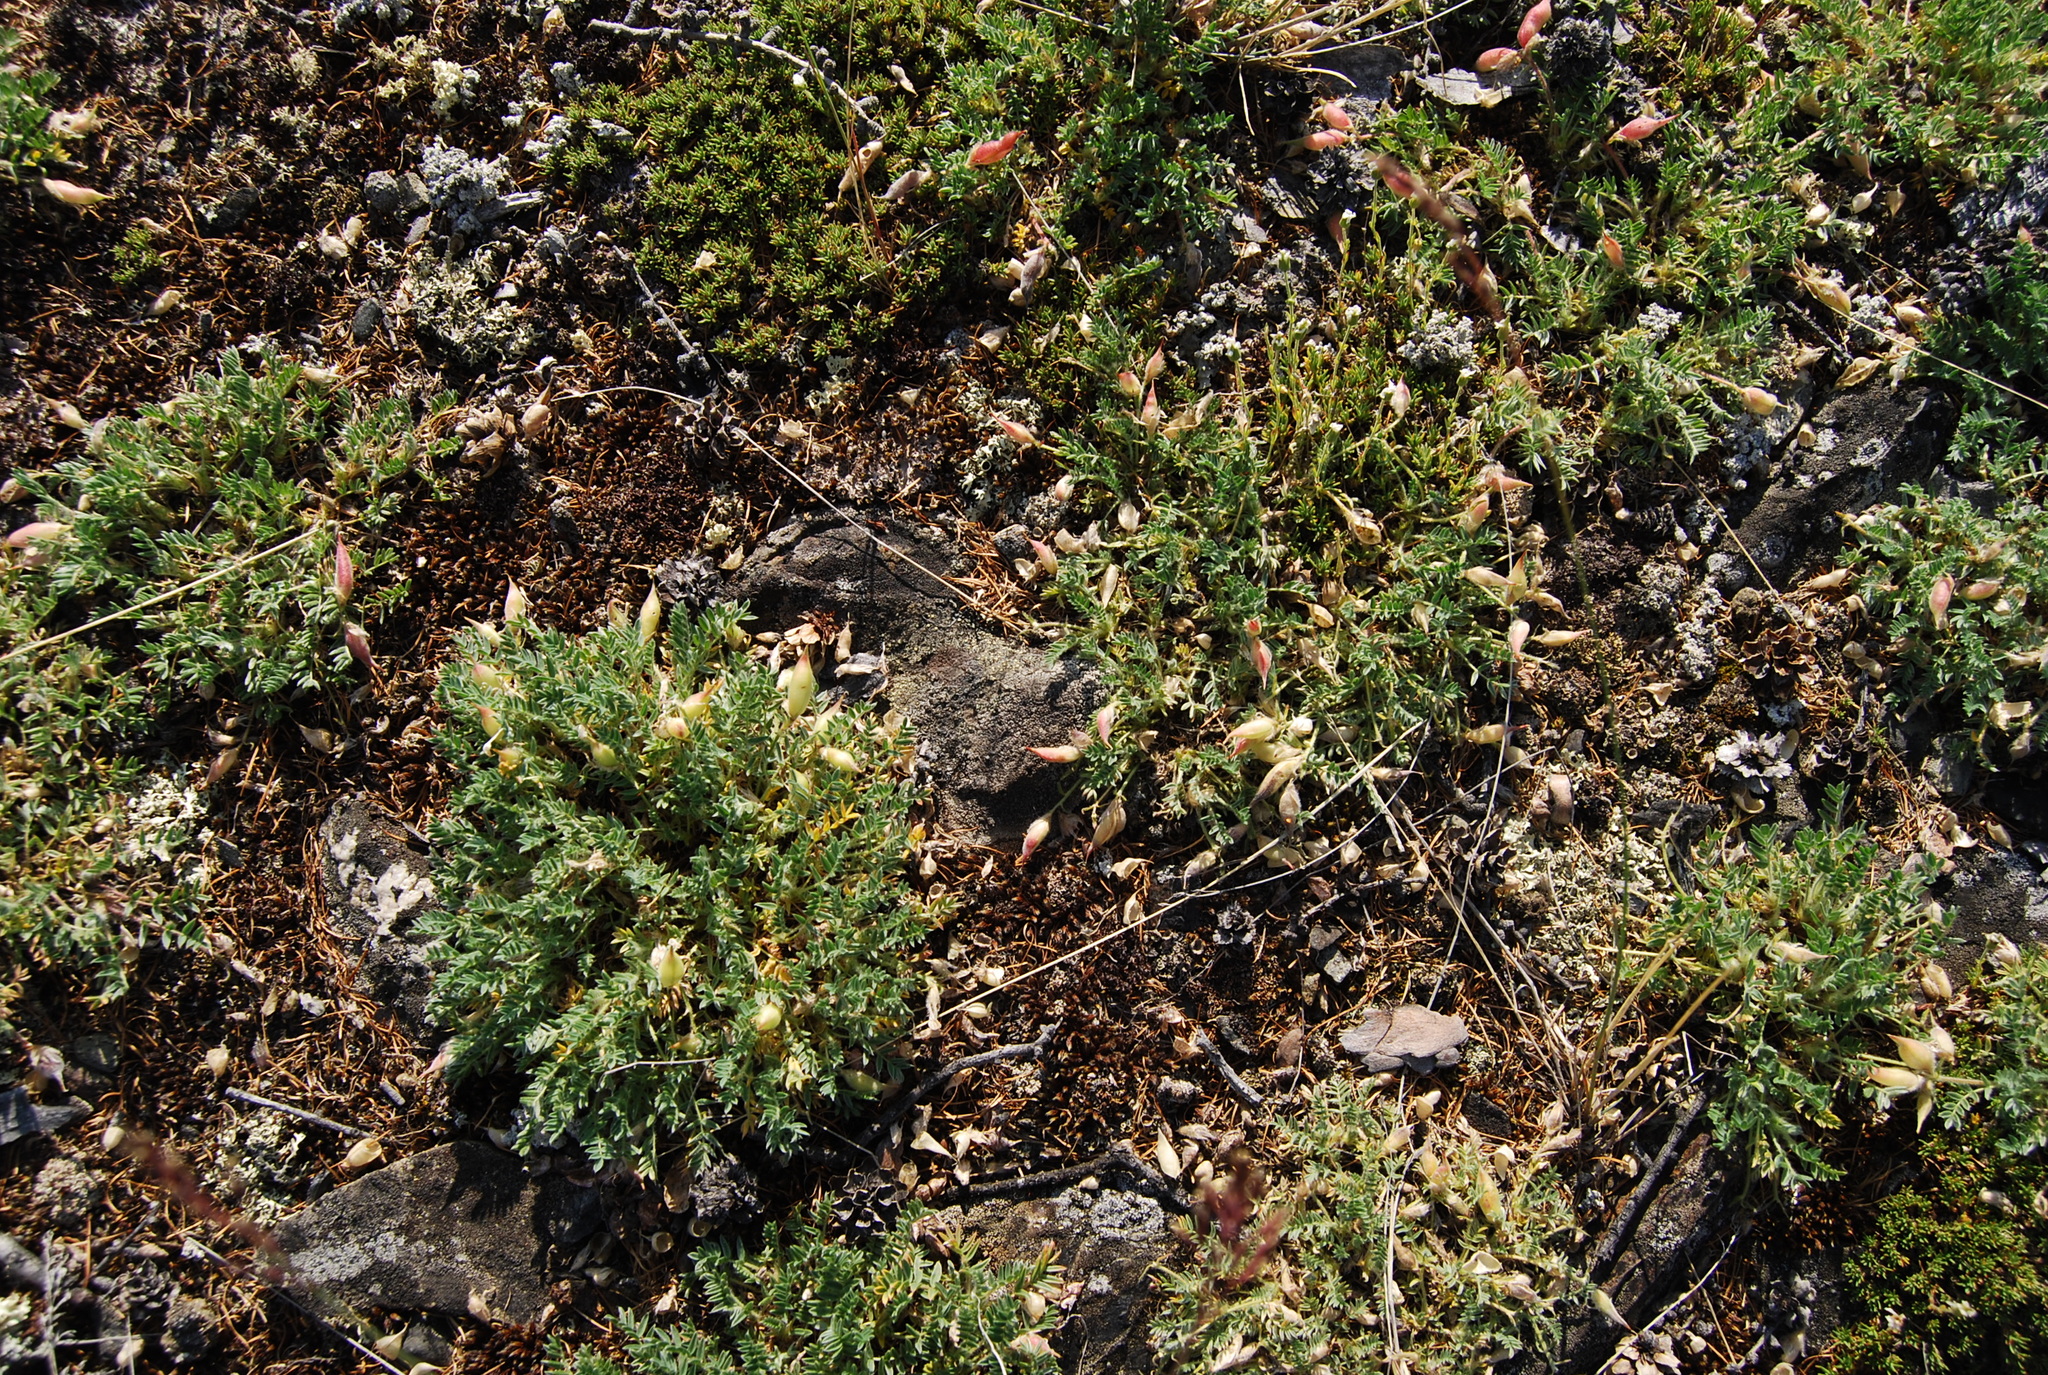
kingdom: Plantae
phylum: Tracheophyta
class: Magnoliopsida
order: Fabales
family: Fabaceae
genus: Oxytropis
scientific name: Oxytropis susumanica
